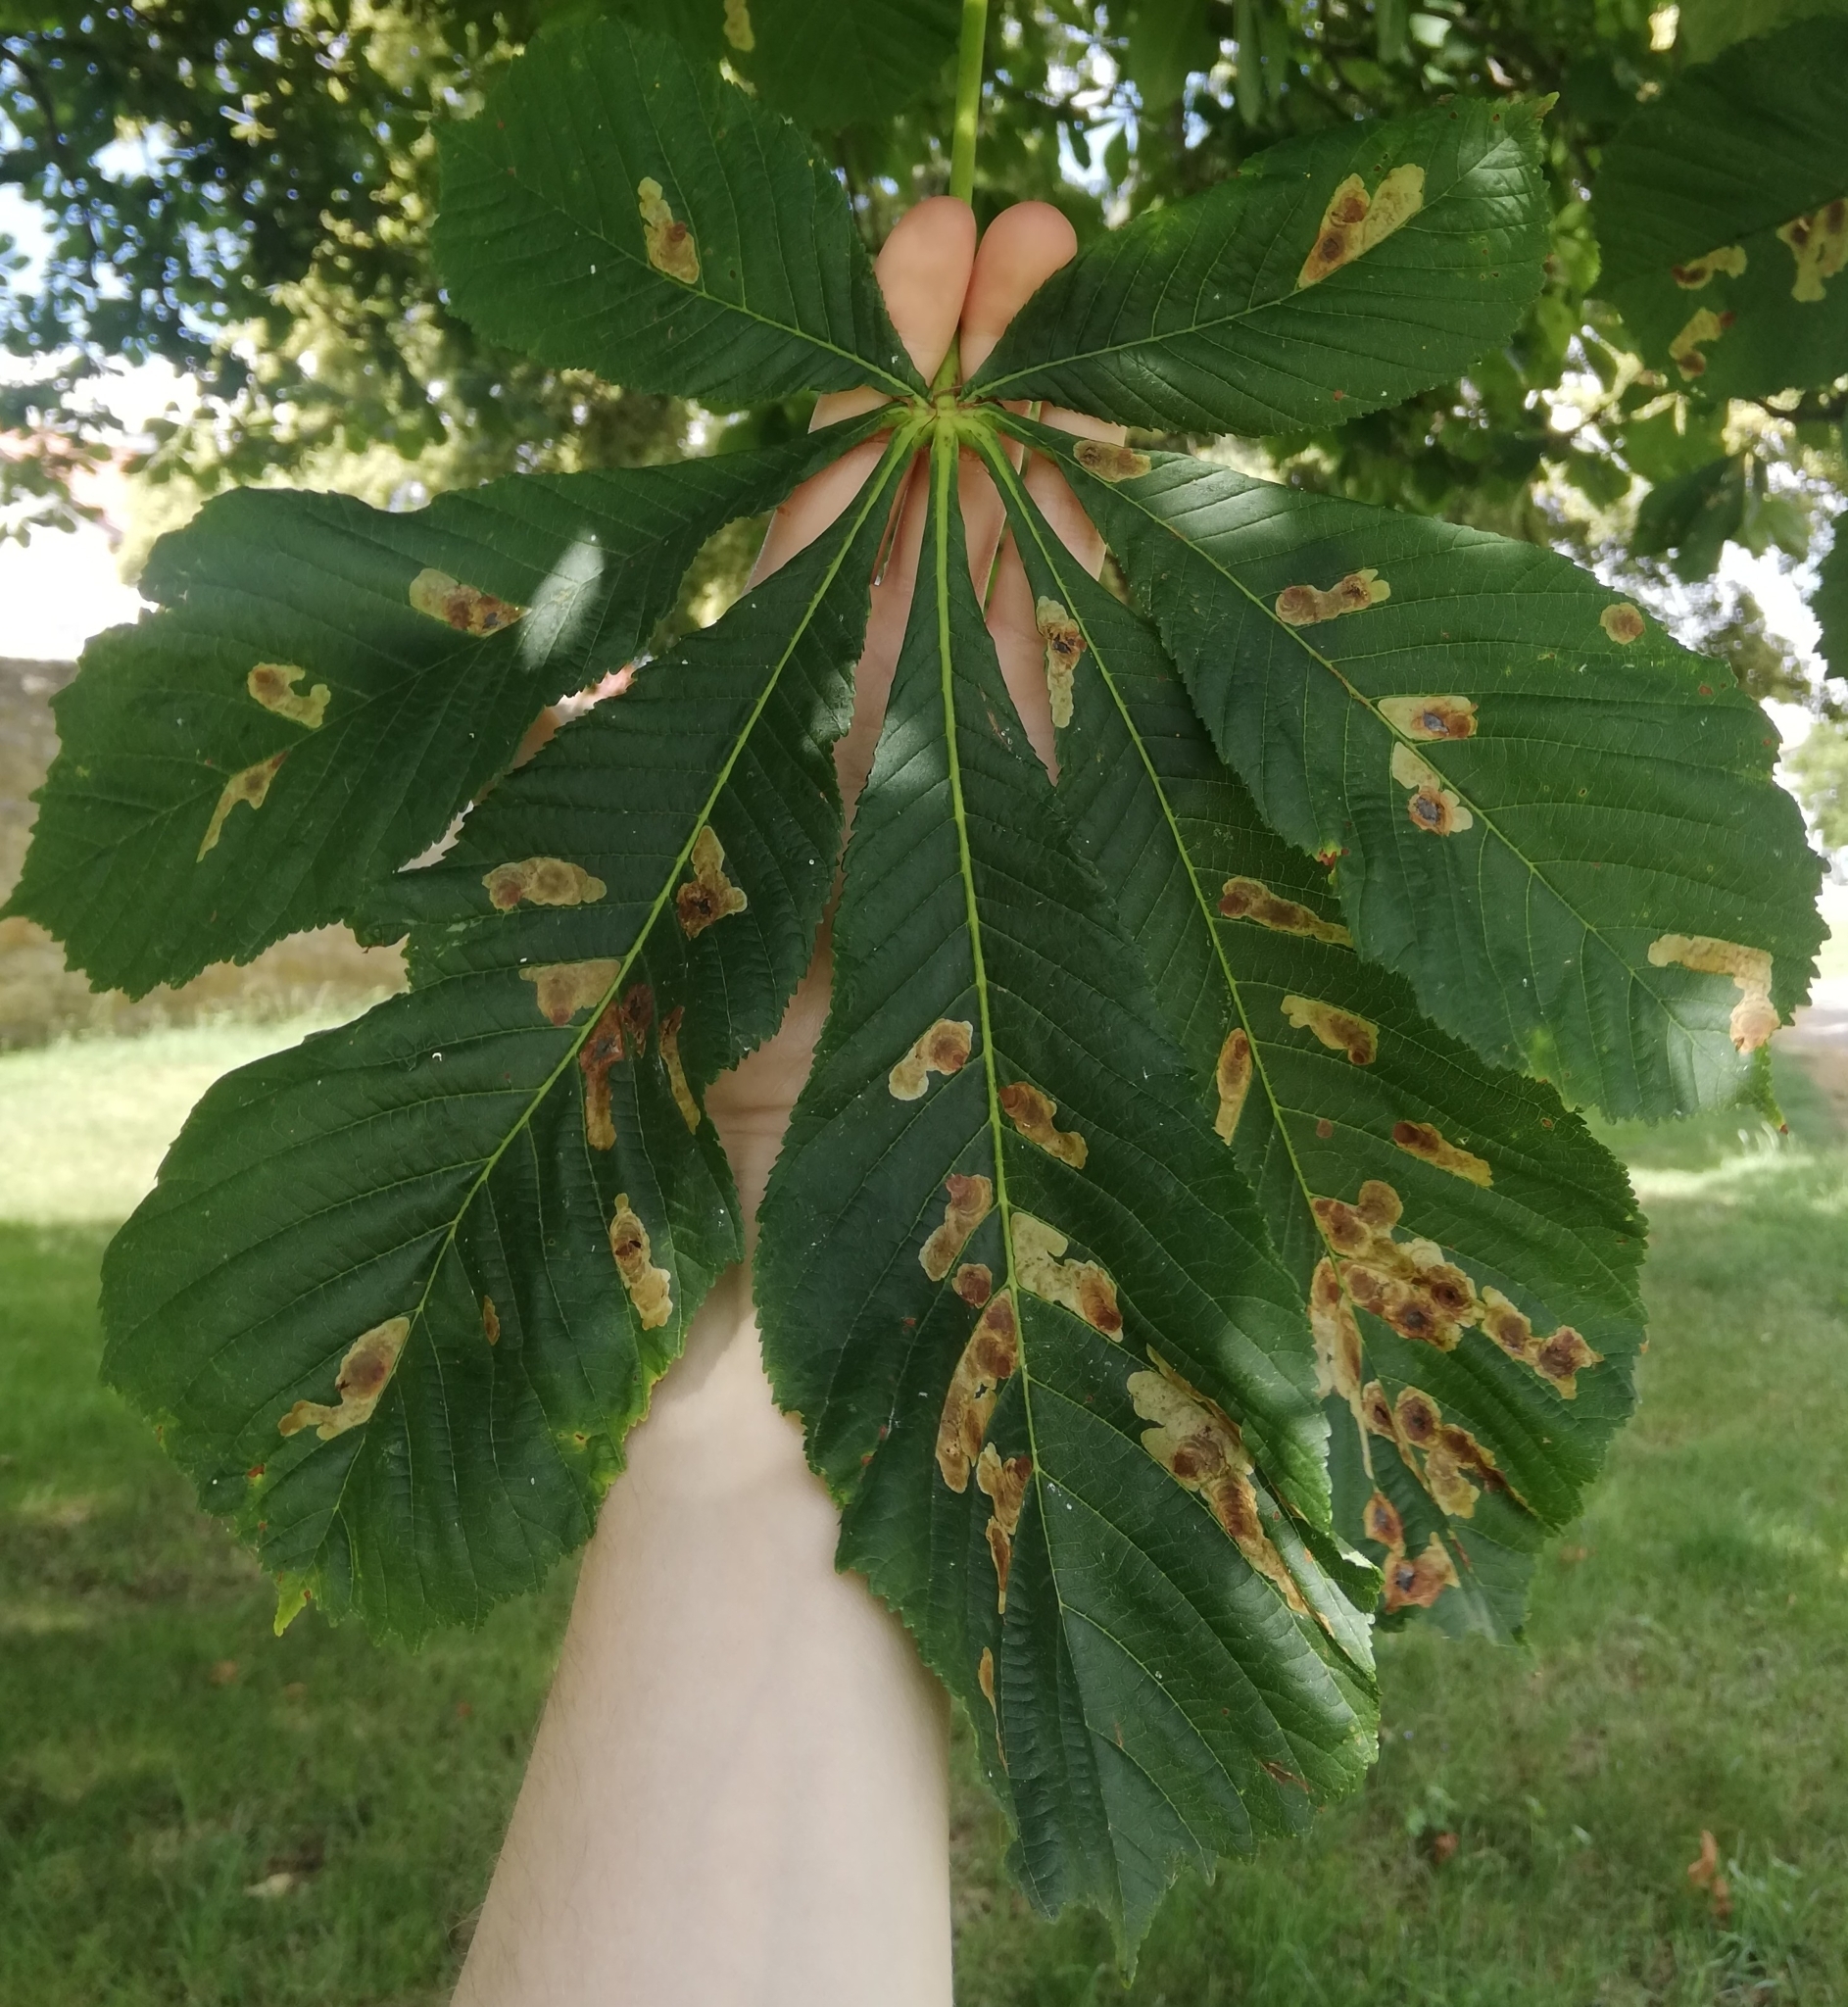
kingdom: Animalia
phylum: Arthropoda
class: Insecta
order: Lepidoptera
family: Gracillariidae
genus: Cameraria
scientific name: Cameraria ohridella
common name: Horse-chestnut leaf-miner
